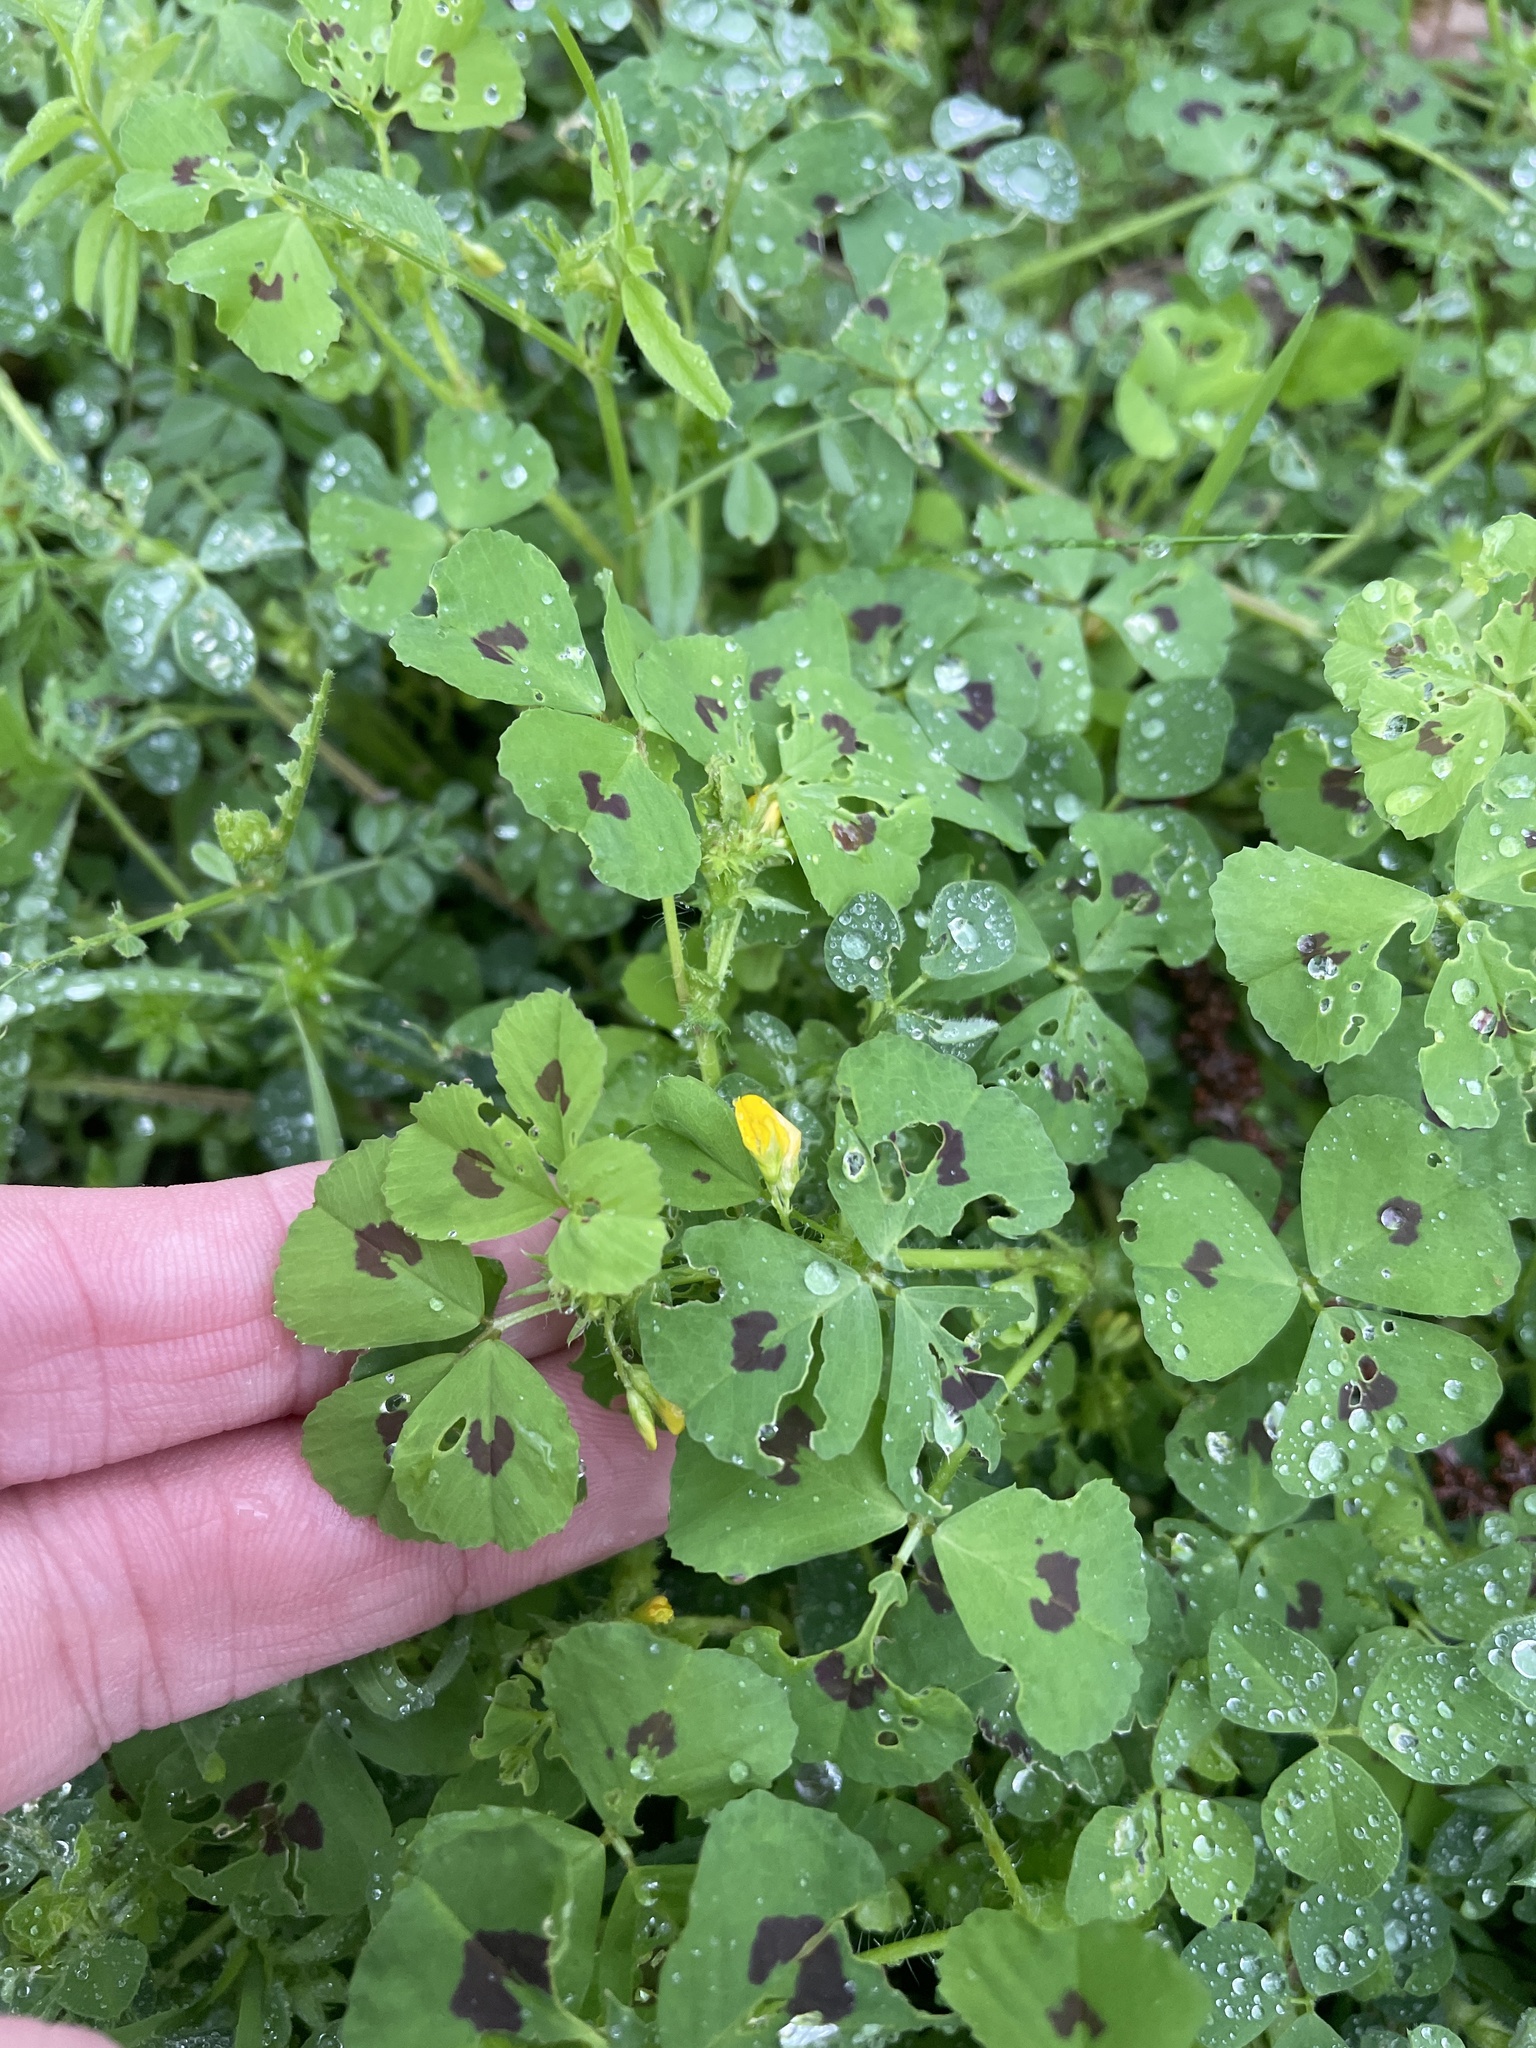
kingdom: Plantae
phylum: Tracheophyta
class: Magnoliopsida
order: Fabales
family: Fabaceae
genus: Medicago
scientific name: Medicago arabica
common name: Spotted medick
